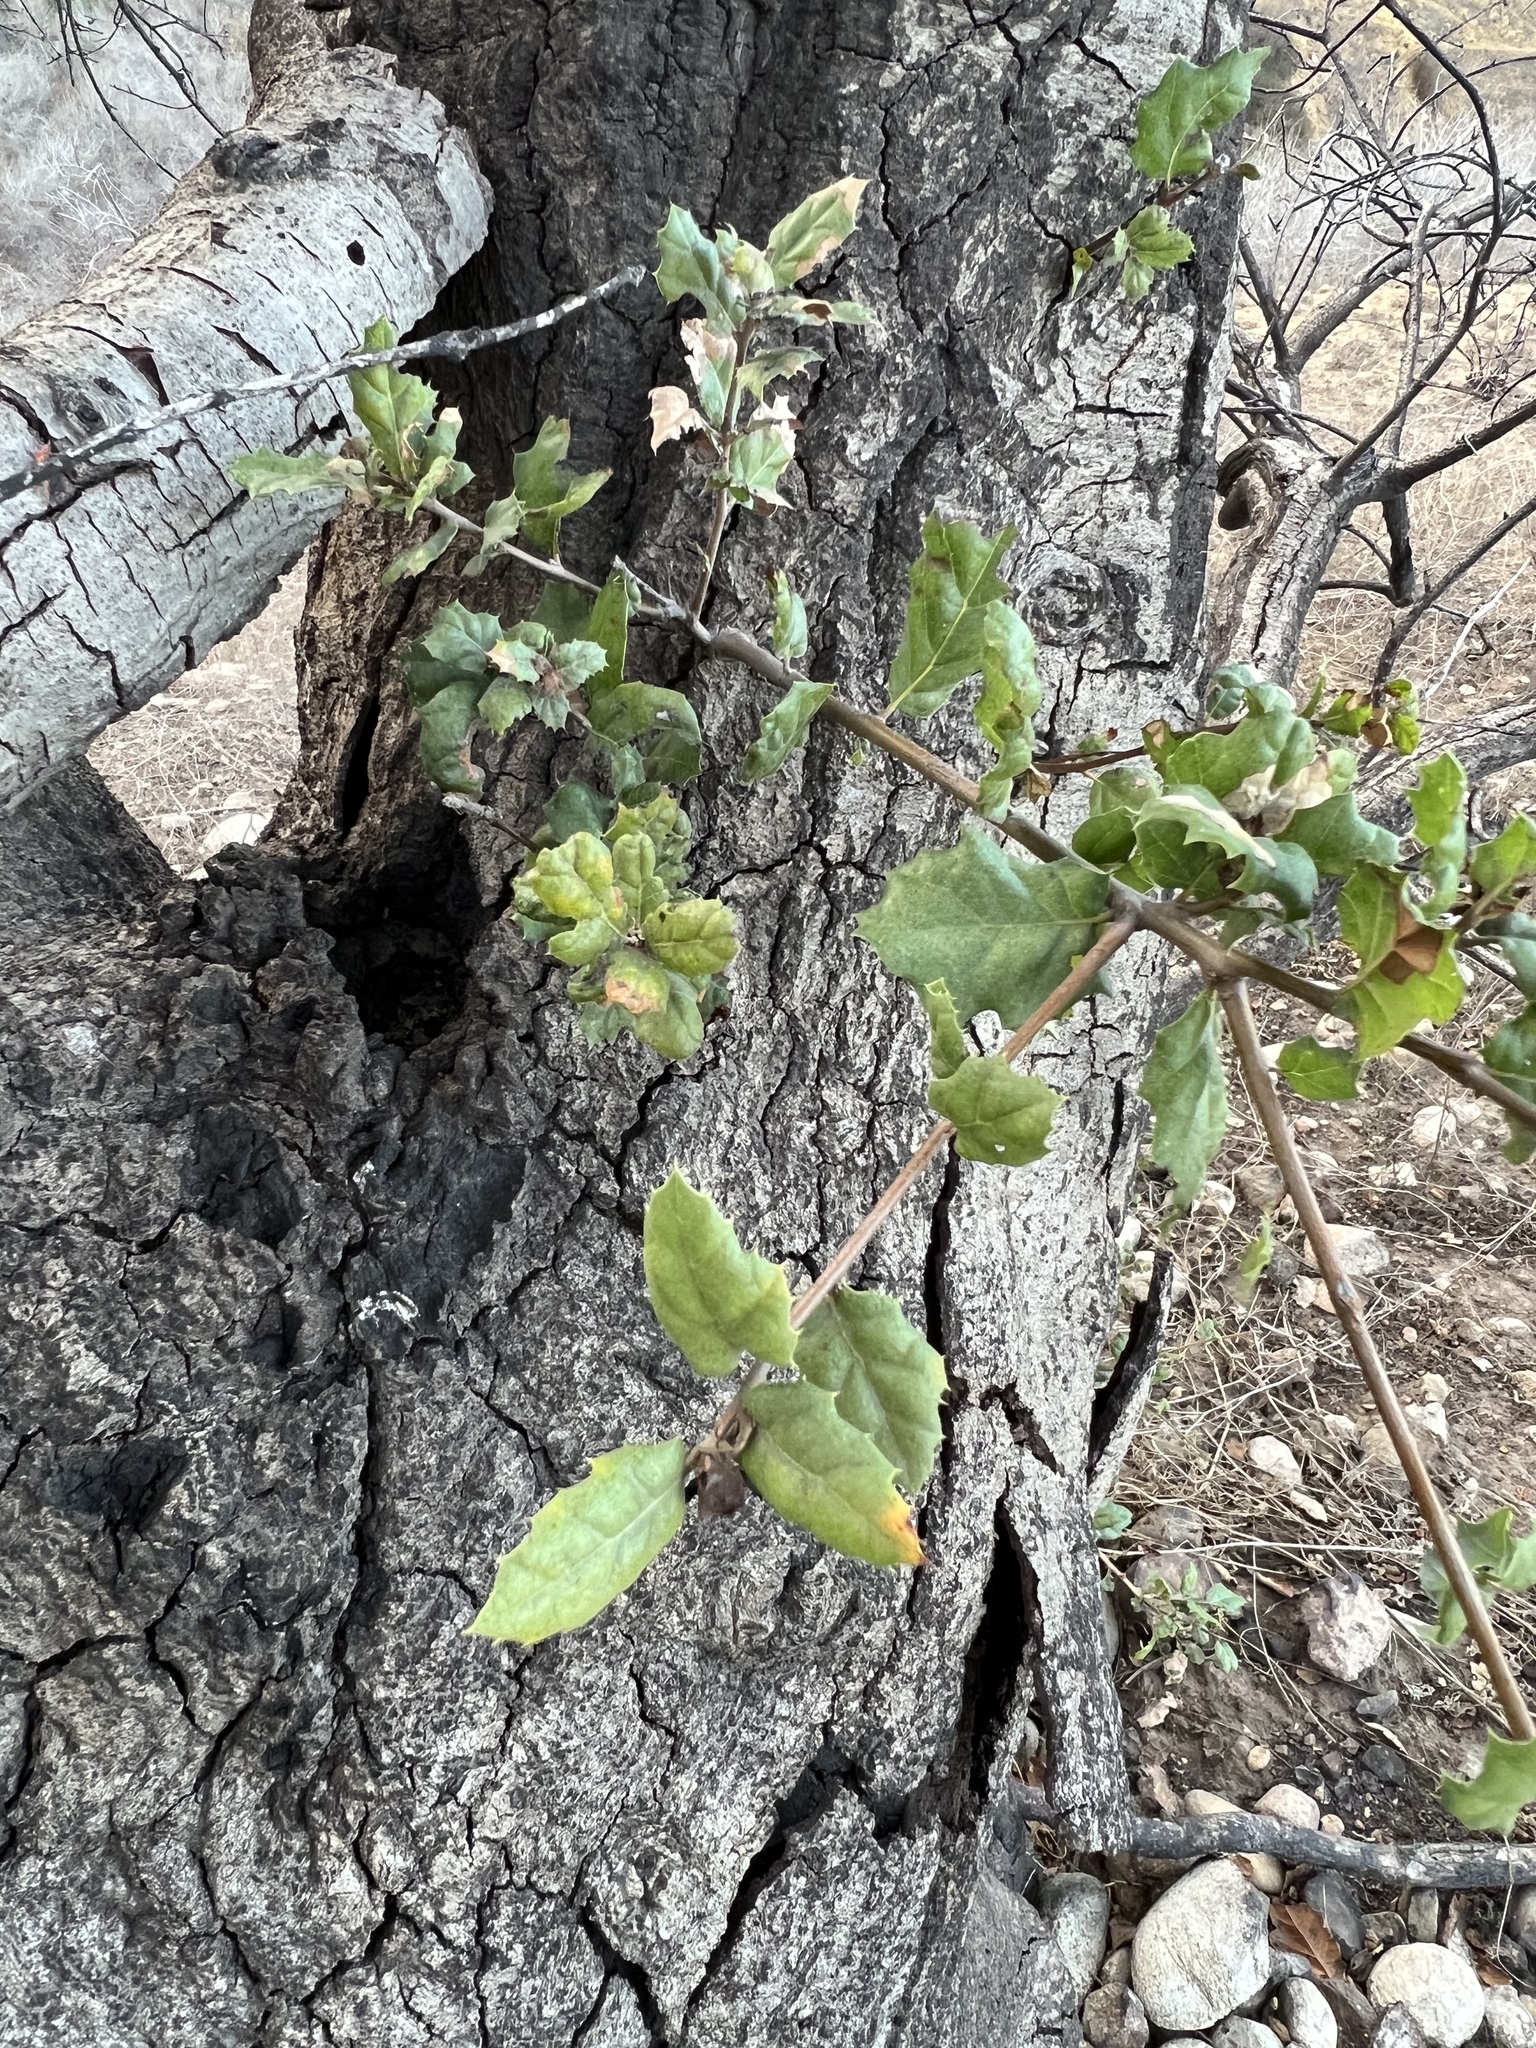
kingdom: Plantae
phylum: Tracheophyta
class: Magnoliopsida
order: Fagales
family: Fagaceae
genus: Quercus
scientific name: Quercus agrifolia
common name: California live oak
